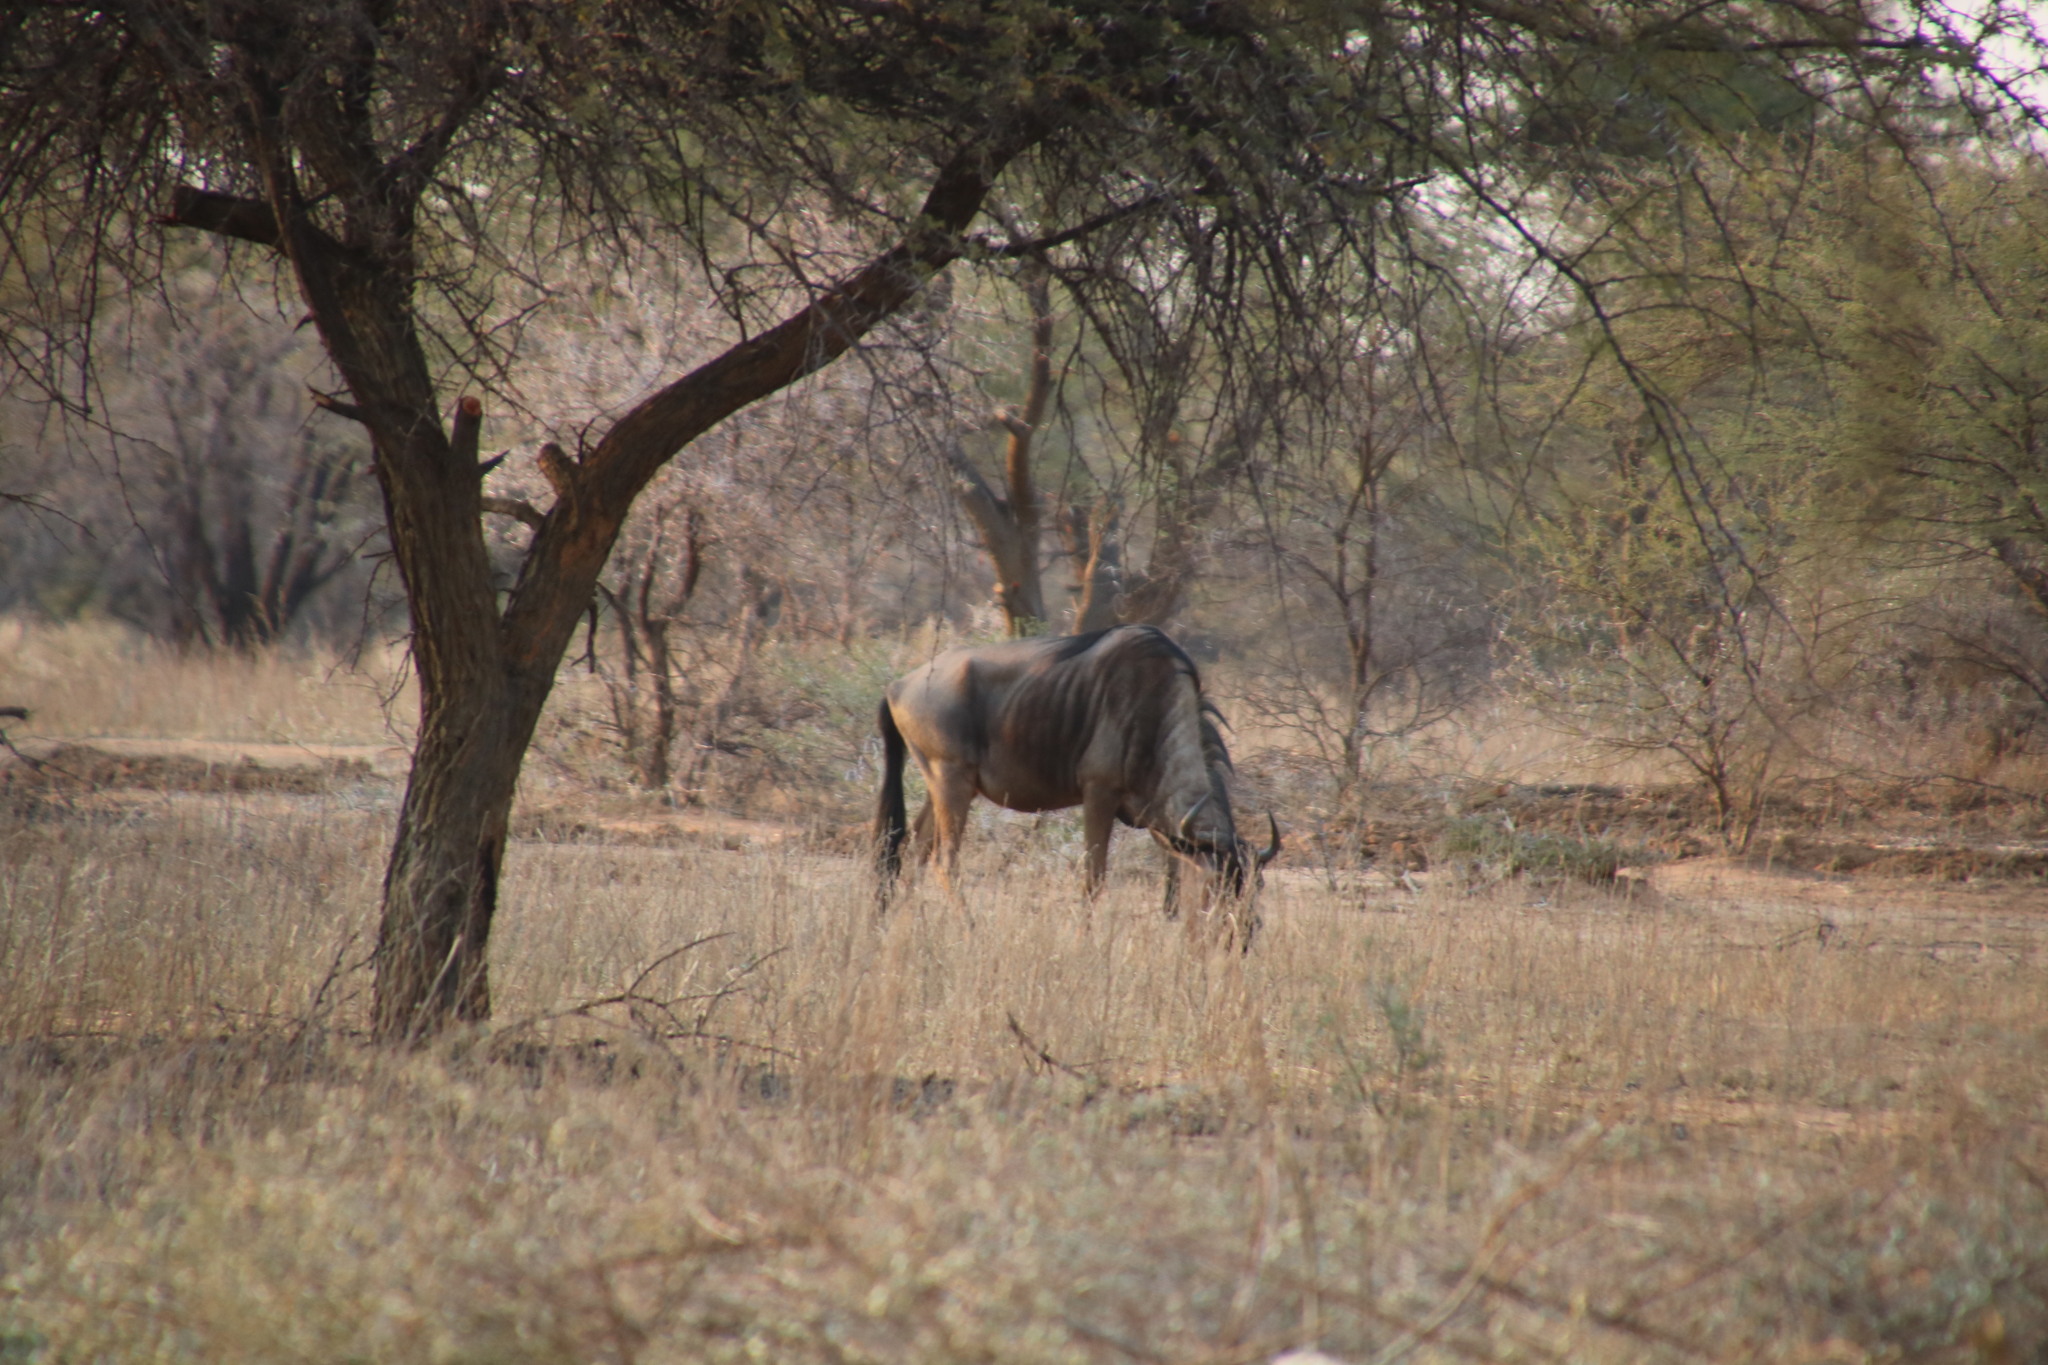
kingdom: Animalia
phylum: Chordata
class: Mammalia
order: Artiodactyla
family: Bovidae
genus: Connochaetes
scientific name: Connochaetes taurinus
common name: Blue wildebeest
